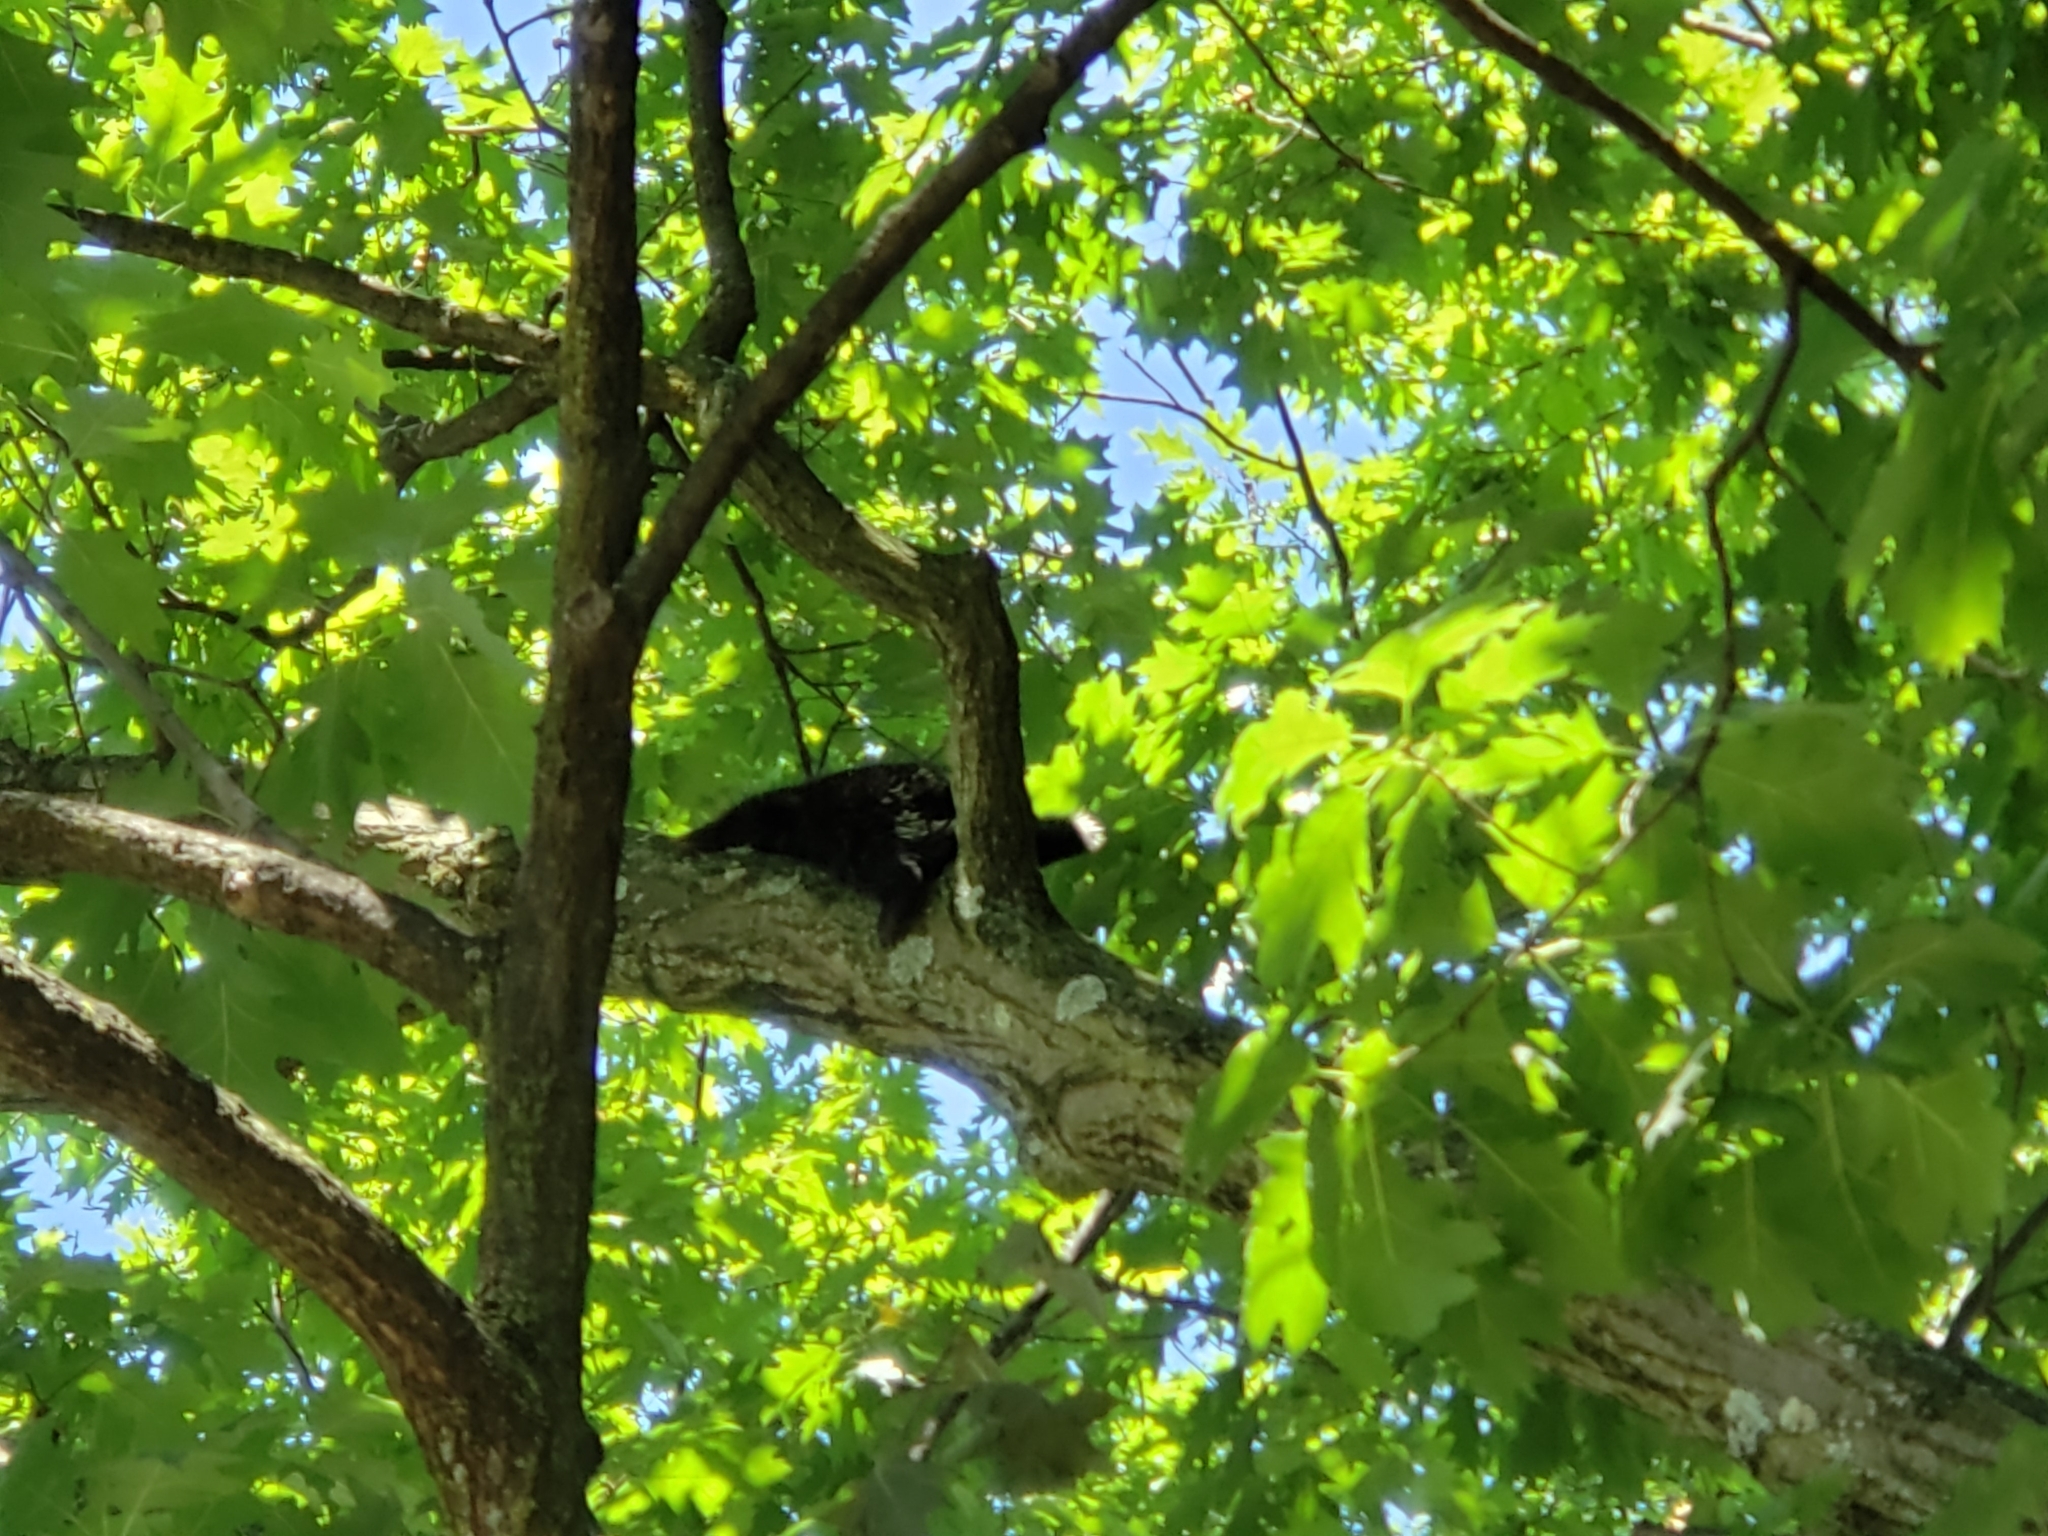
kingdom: Animalia
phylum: Chordata
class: Mammalia
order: Rodentia
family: Erethizontidae
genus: Erethizon
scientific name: Erethizon dorsatus
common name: North american porcupine
